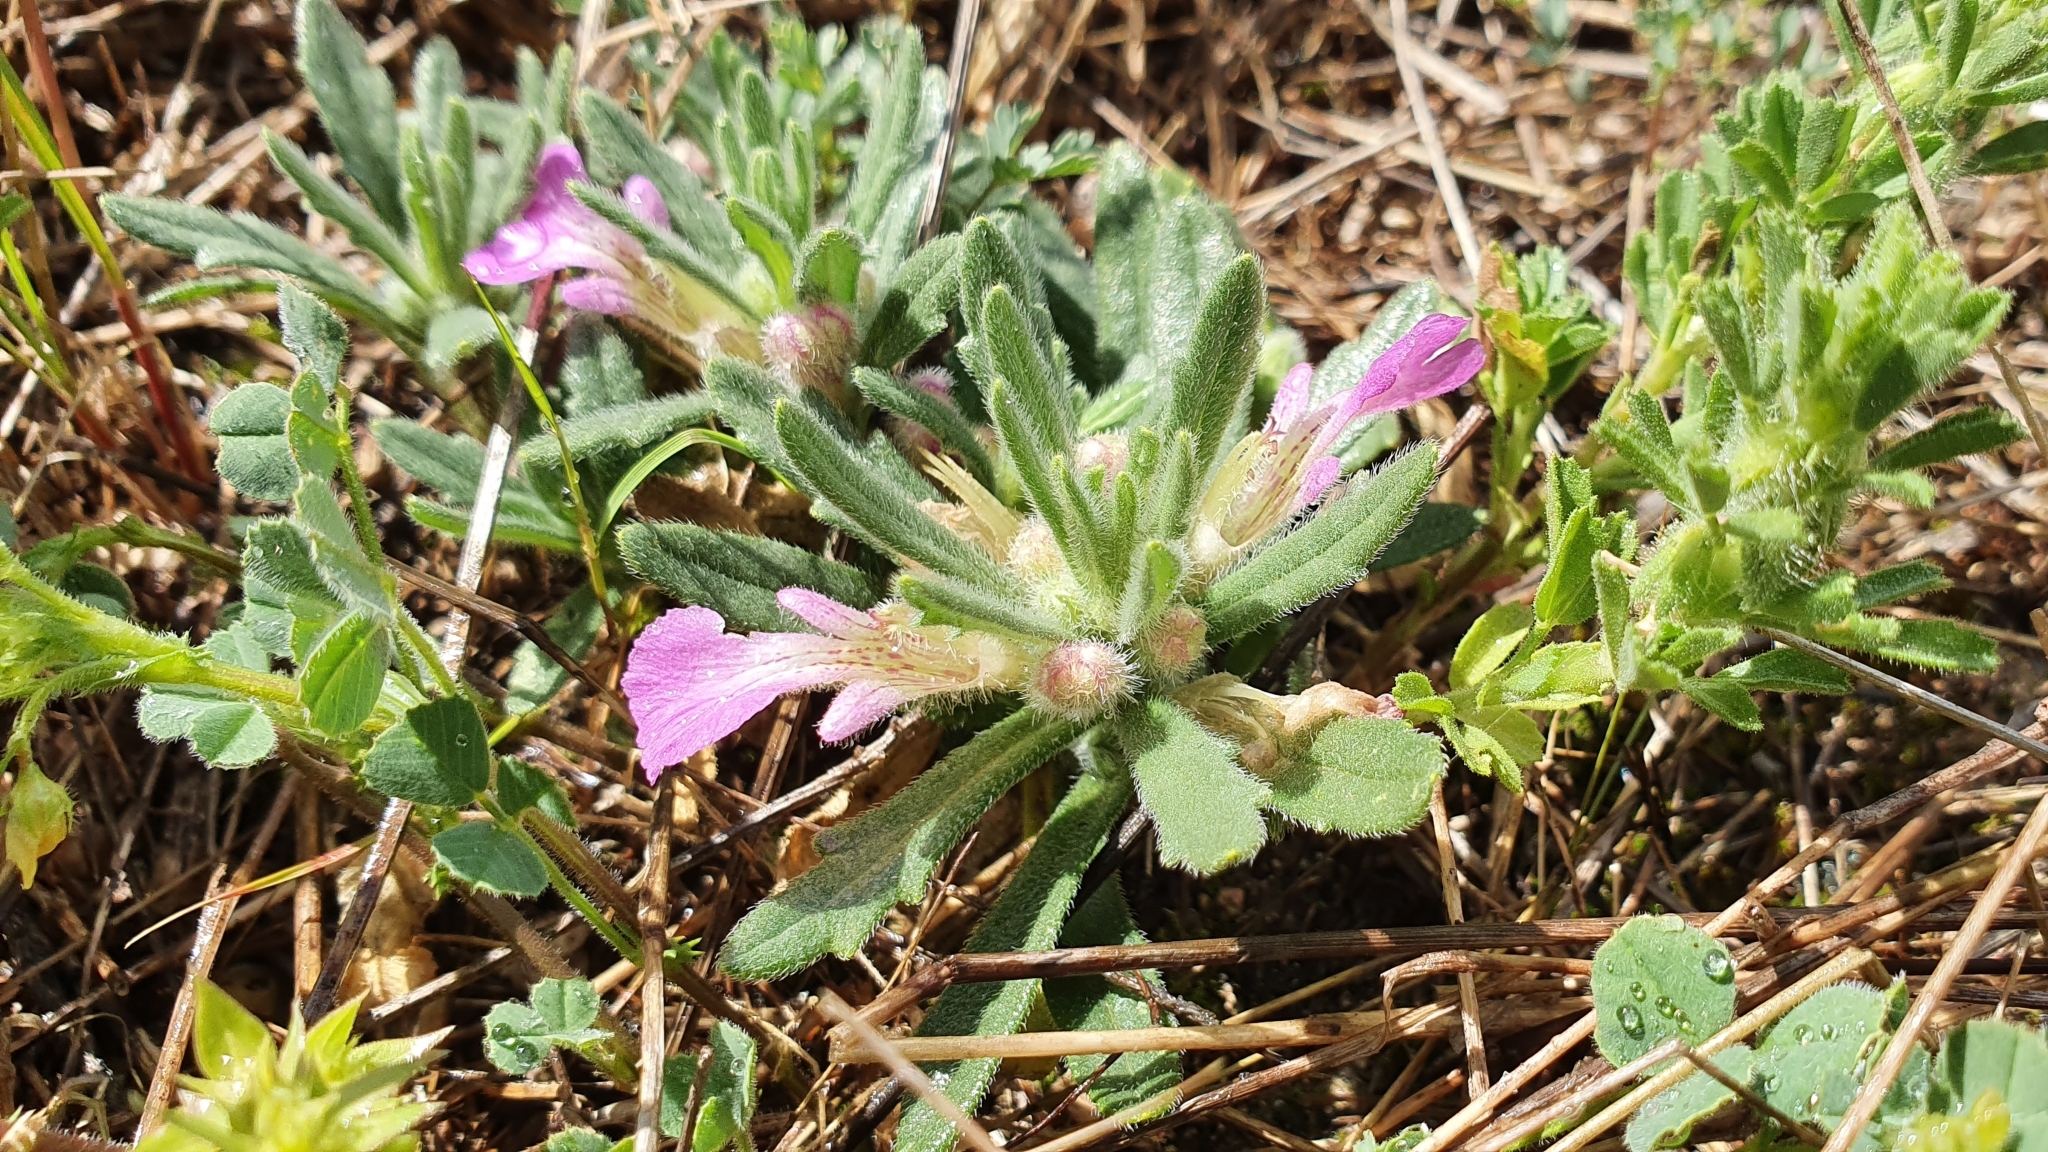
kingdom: Plantae
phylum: Tracheophyta
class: Magnoliopsida
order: Lamiales
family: Lamiaceae
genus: Ajuga
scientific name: Ajuga iva
